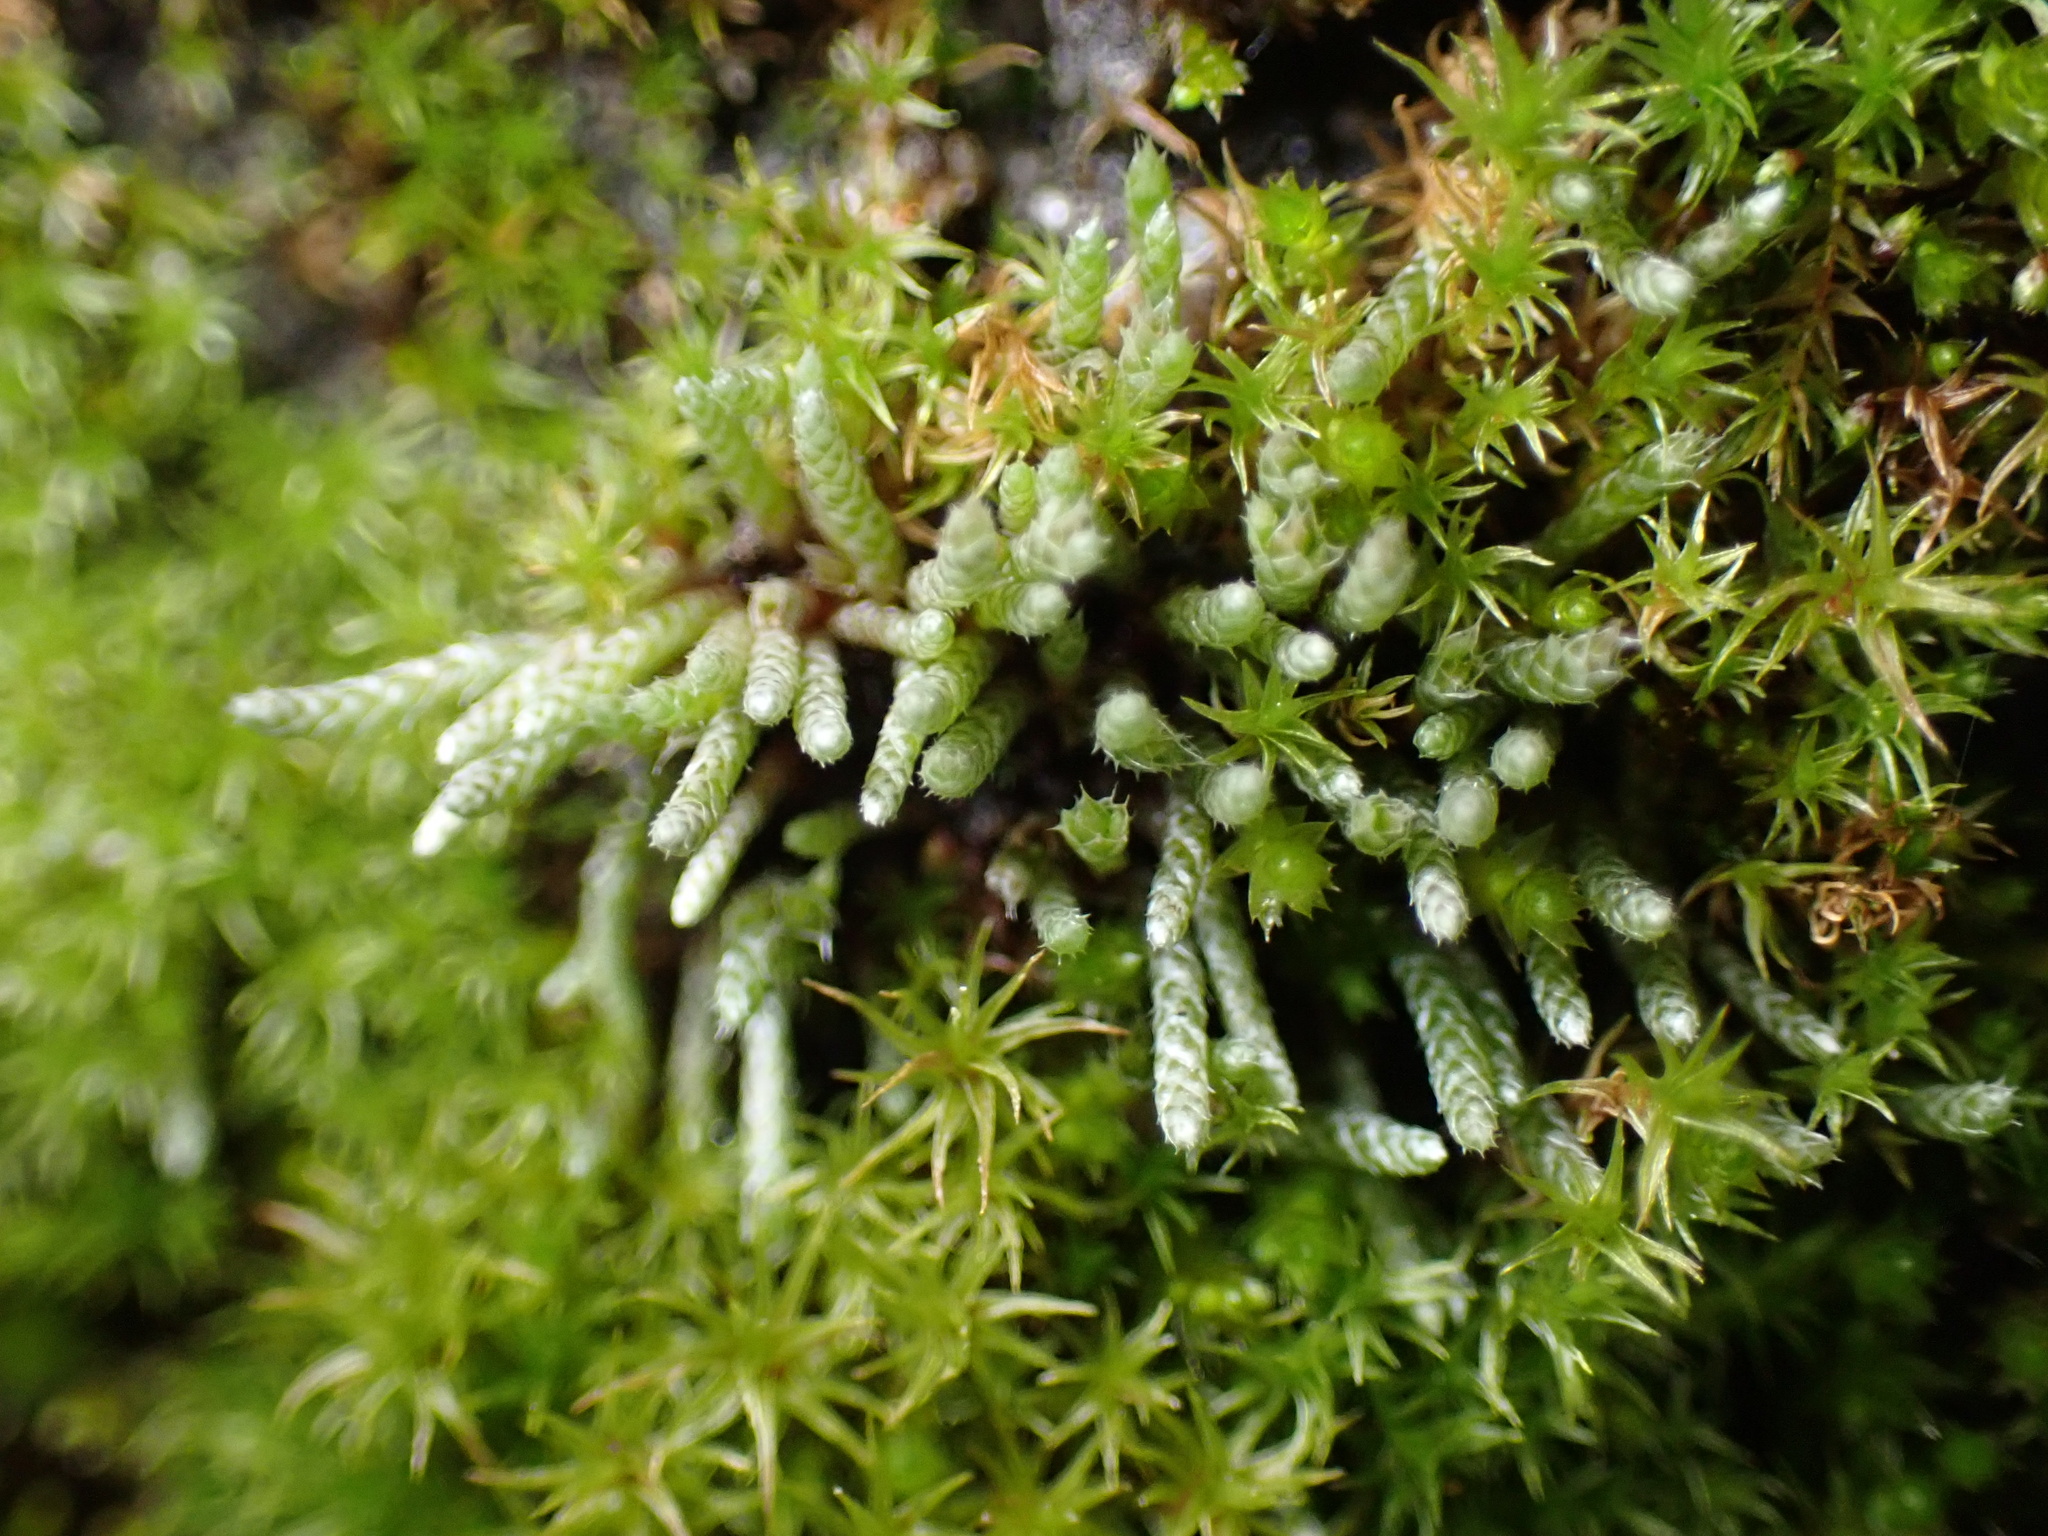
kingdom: Plantae
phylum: Bryophyta
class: Bryopsida
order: Bryales
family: Bryaceae
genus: Bryum
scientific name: Bryum argenteum
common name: Silver-moss
